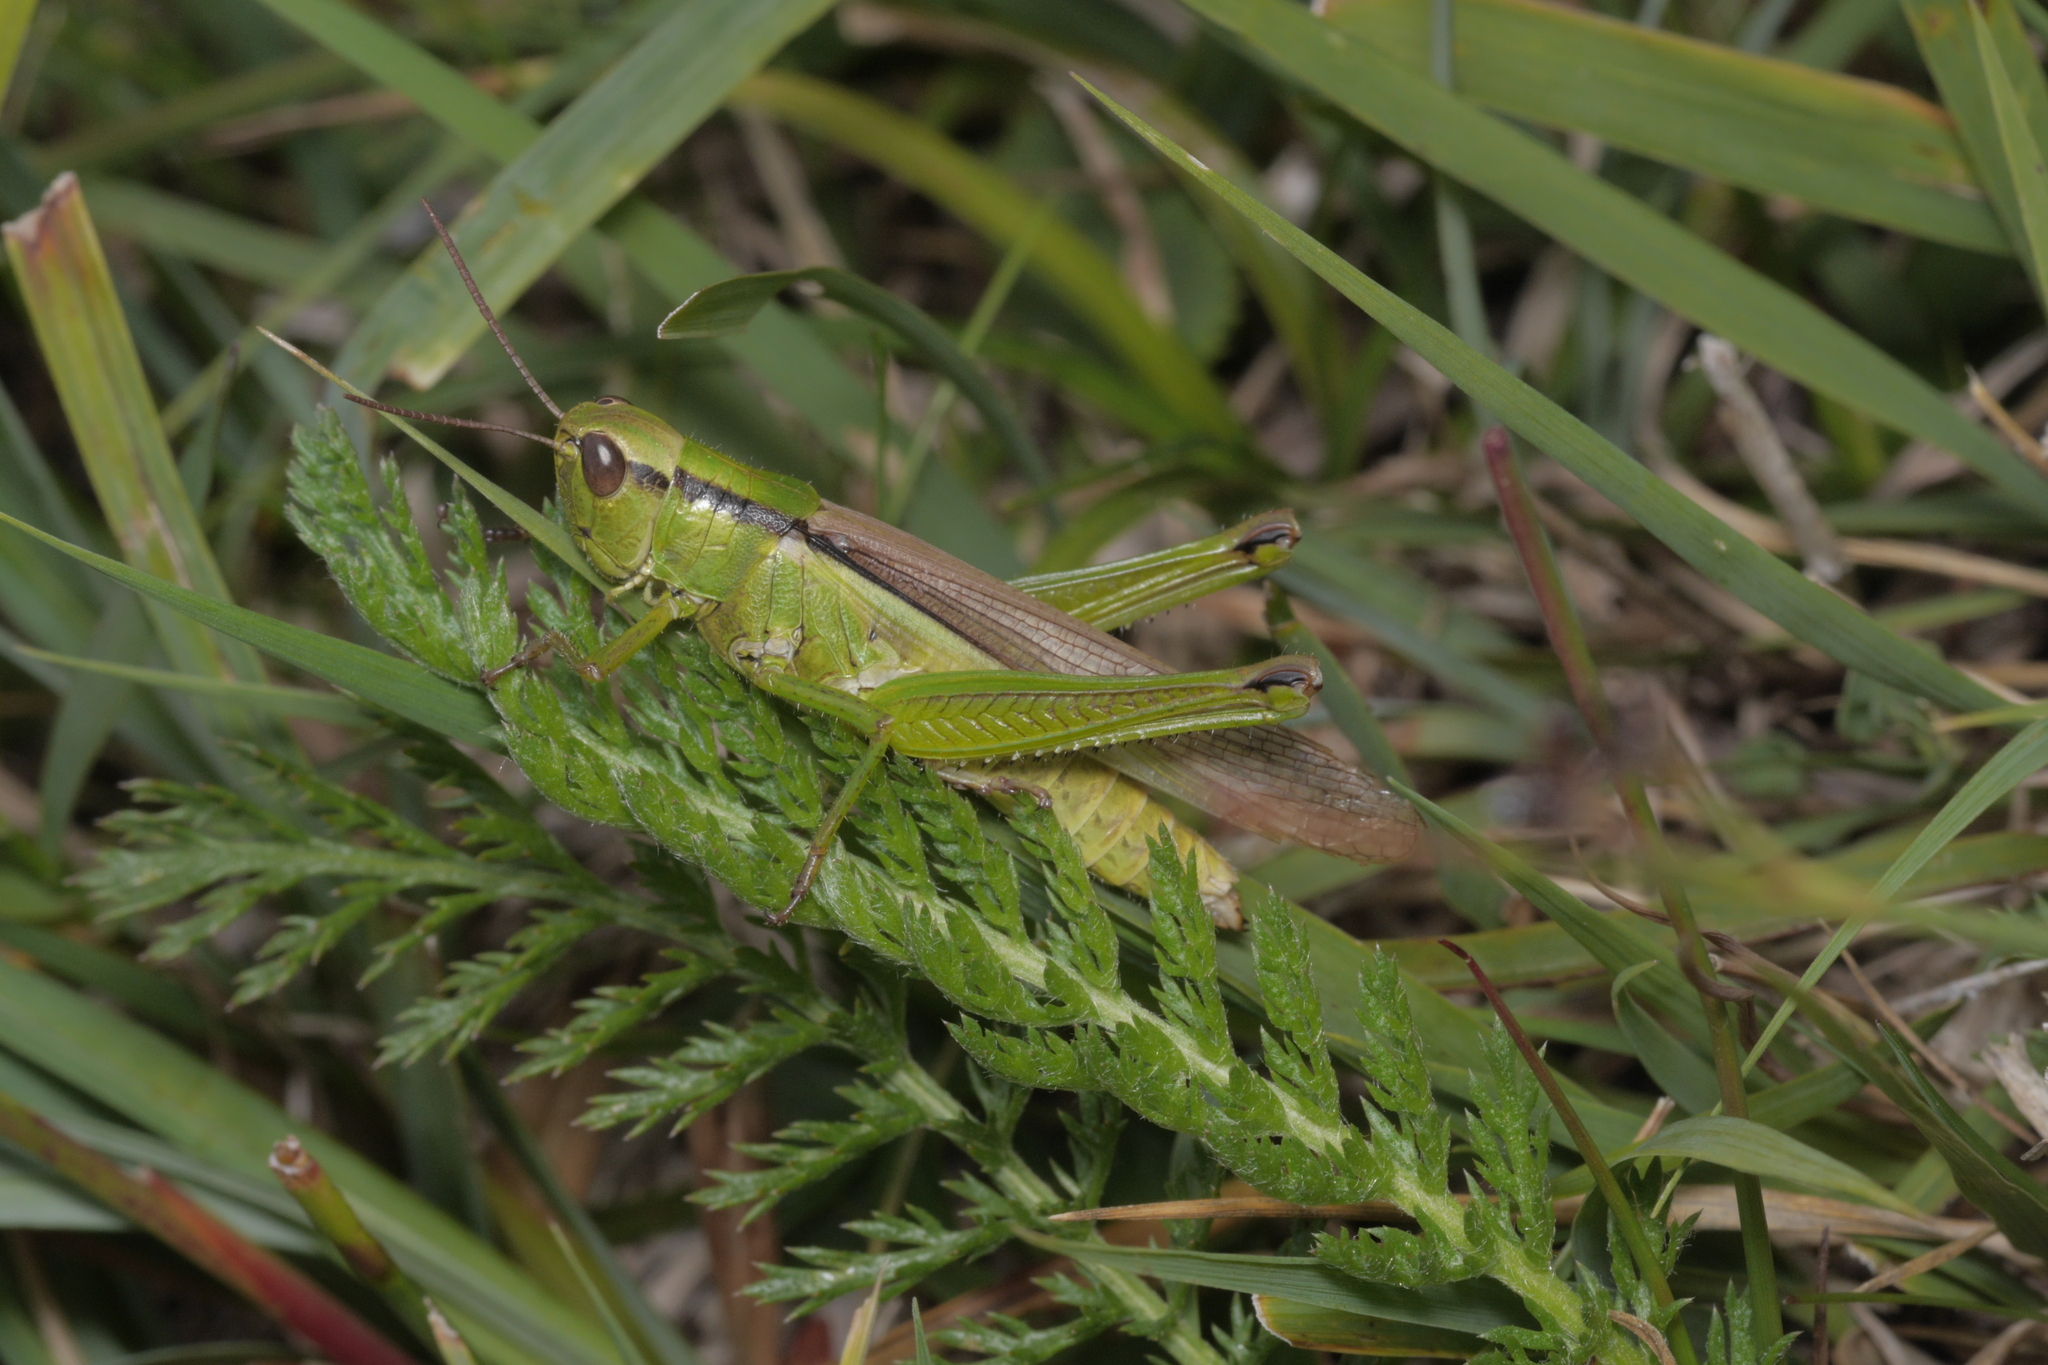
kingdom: Animalia
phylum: Arthropoda
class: Insecta
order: Orthoptera
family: Acrididae
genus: Mecostethus
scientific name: Mecostethus parapleurus
